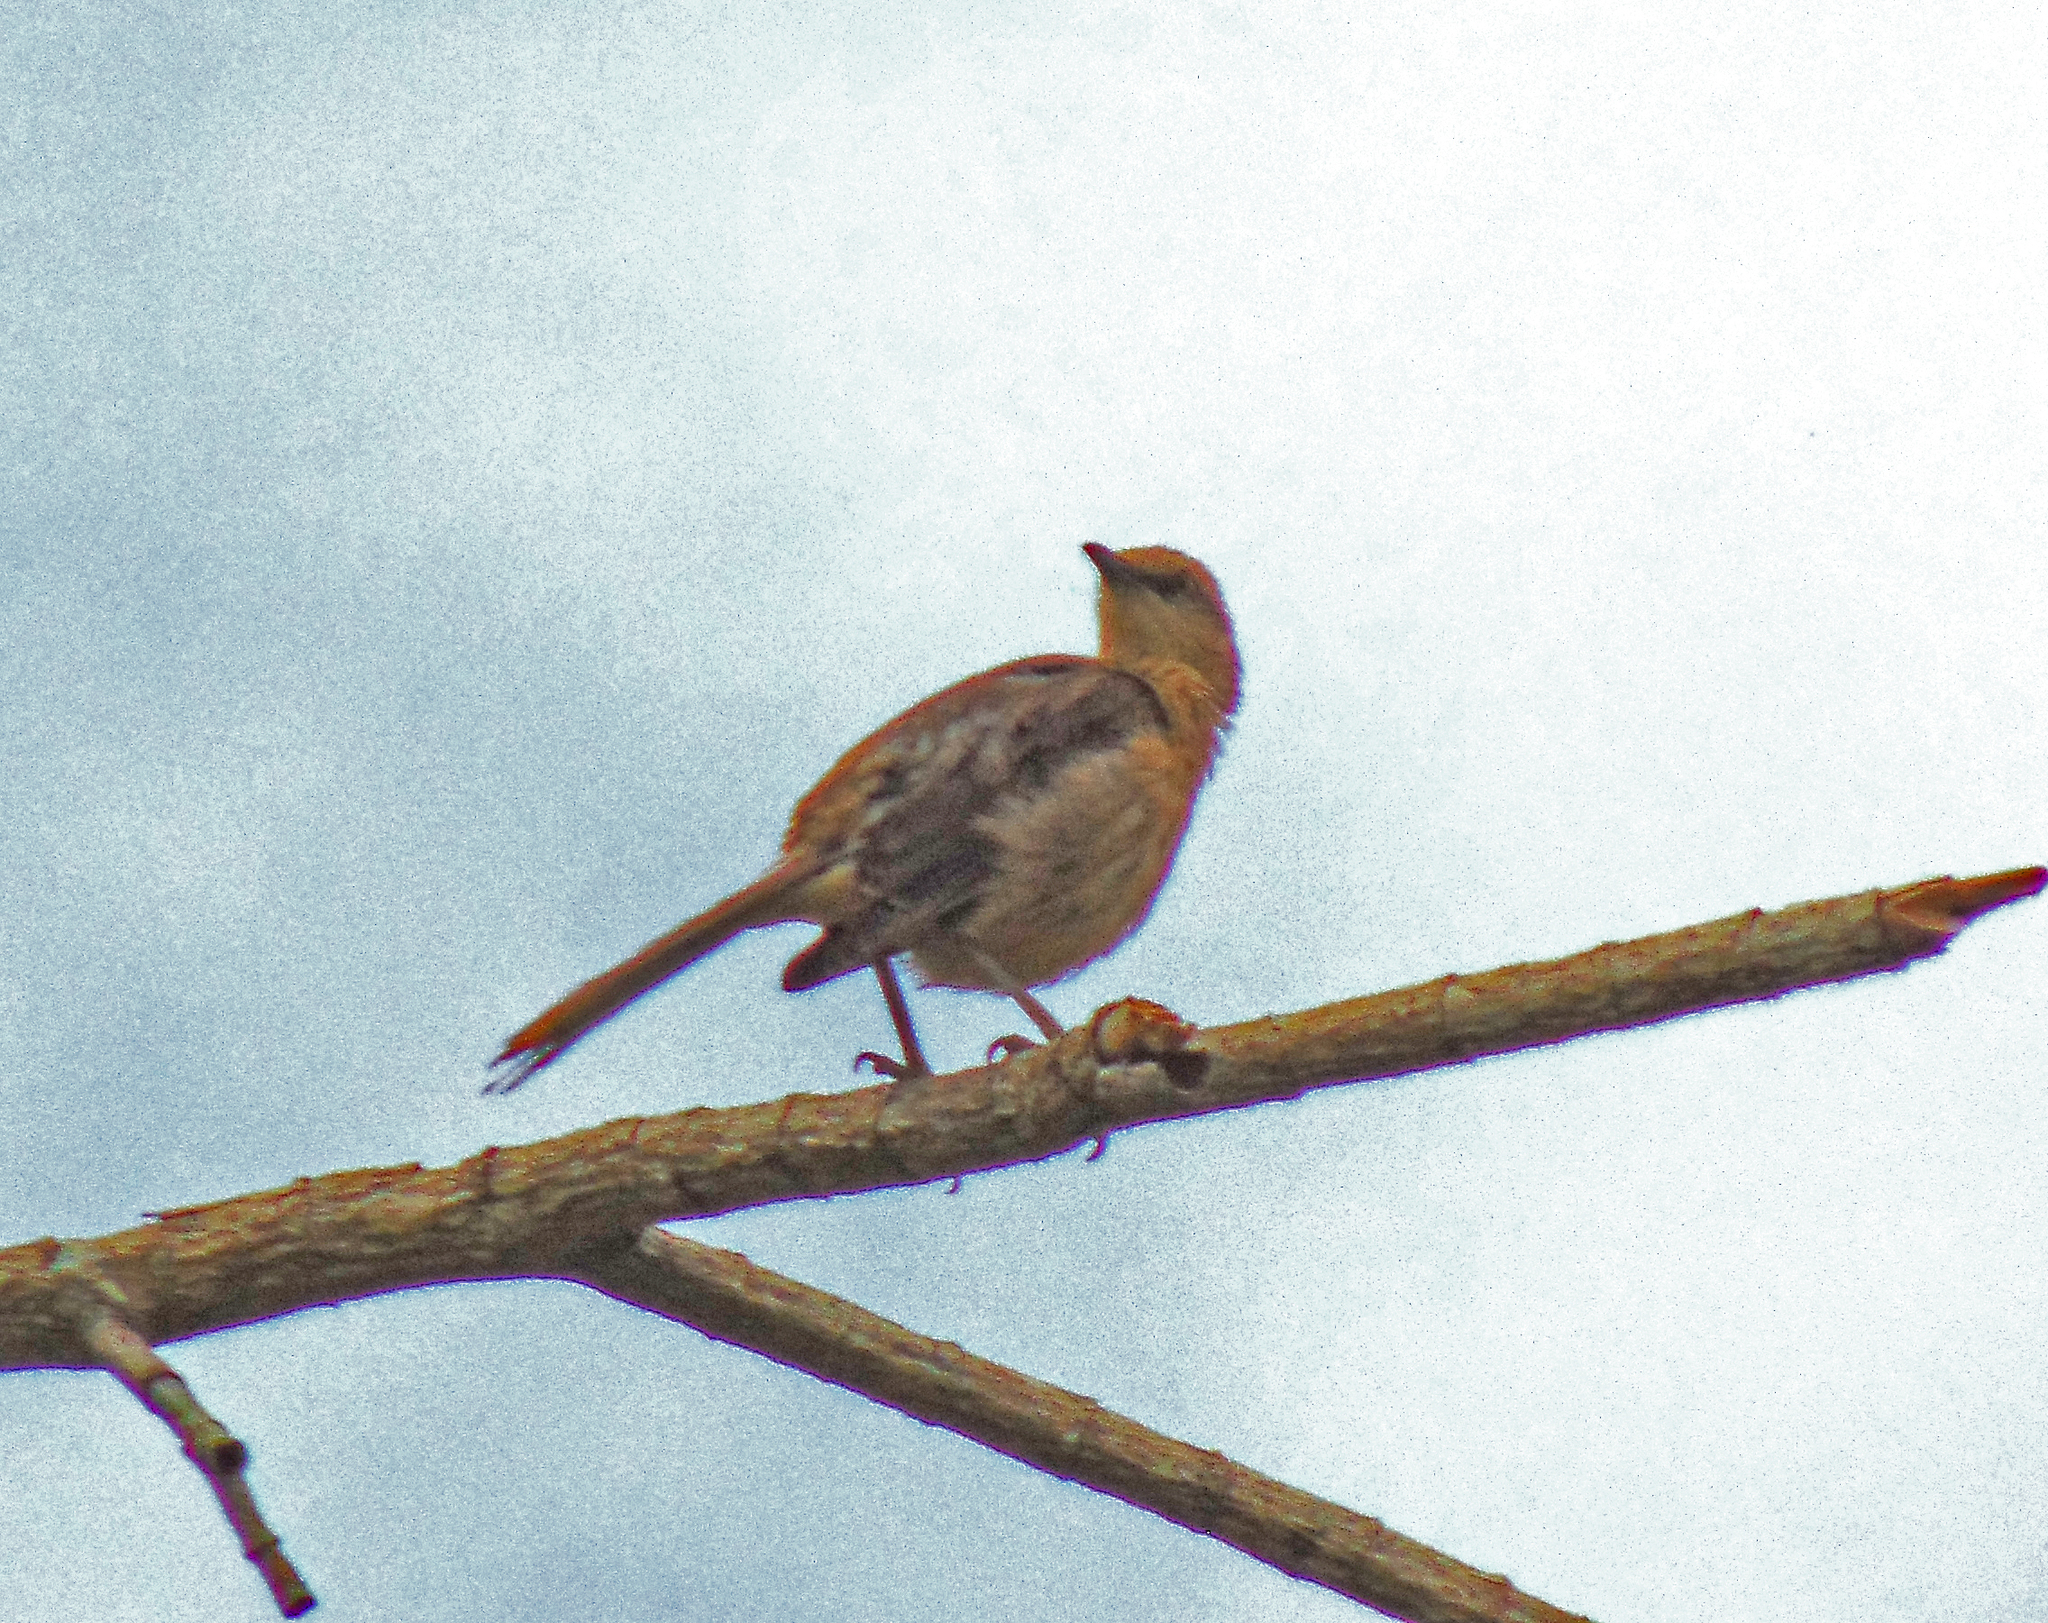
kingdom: Animalia
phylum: Chordata
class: Aves
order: Passeriformes
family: Mimidae
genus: Mimus
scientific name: Mimus saturninus
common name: Chalk-browed mockingbird
